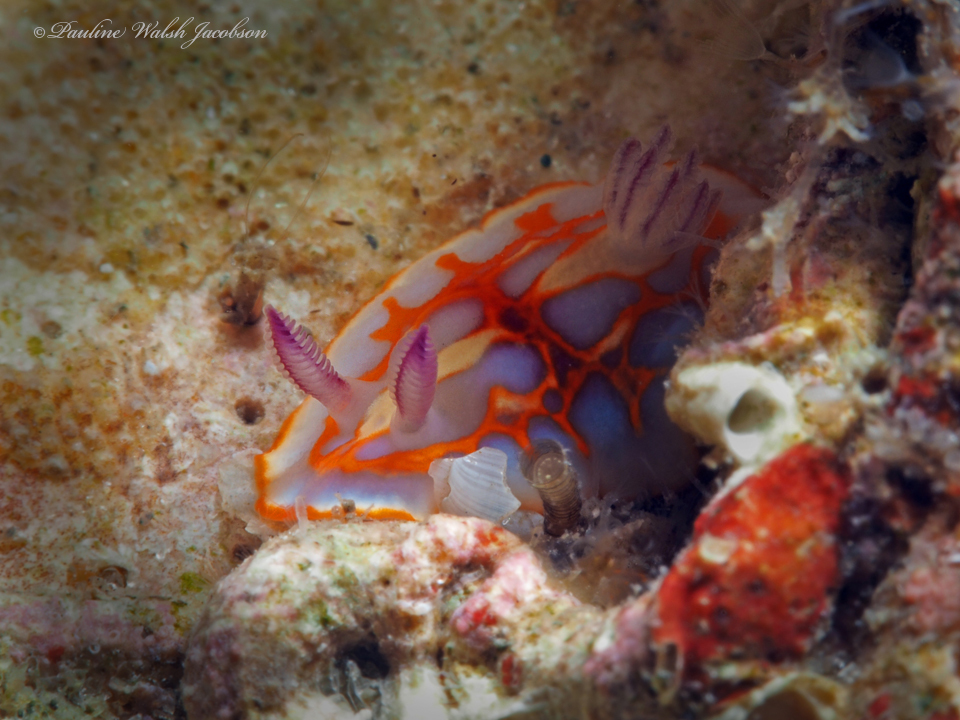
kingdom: Animalia
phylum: Mollusca
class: Gastropoda
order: Nudibranchia
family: Chromodorididae
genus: Felimida
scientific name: Felimida clenchi
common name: Bill clench's doris
